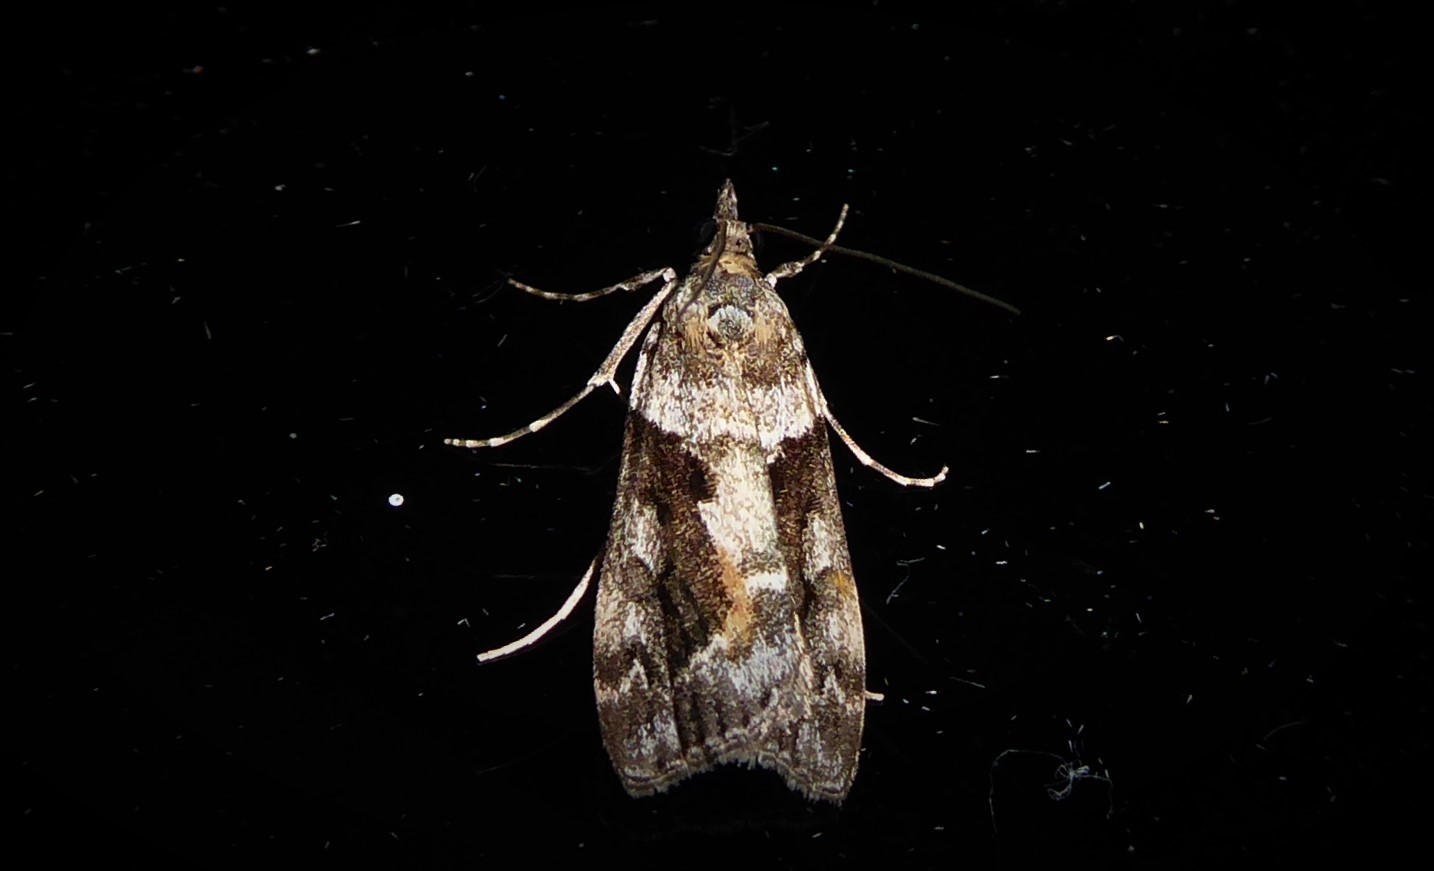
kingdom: Animalia
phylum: Arthropoda
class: Insecta
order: Lepidoptera
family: Crambidae
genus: Eudonia
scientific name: Eudonia submarginalis
